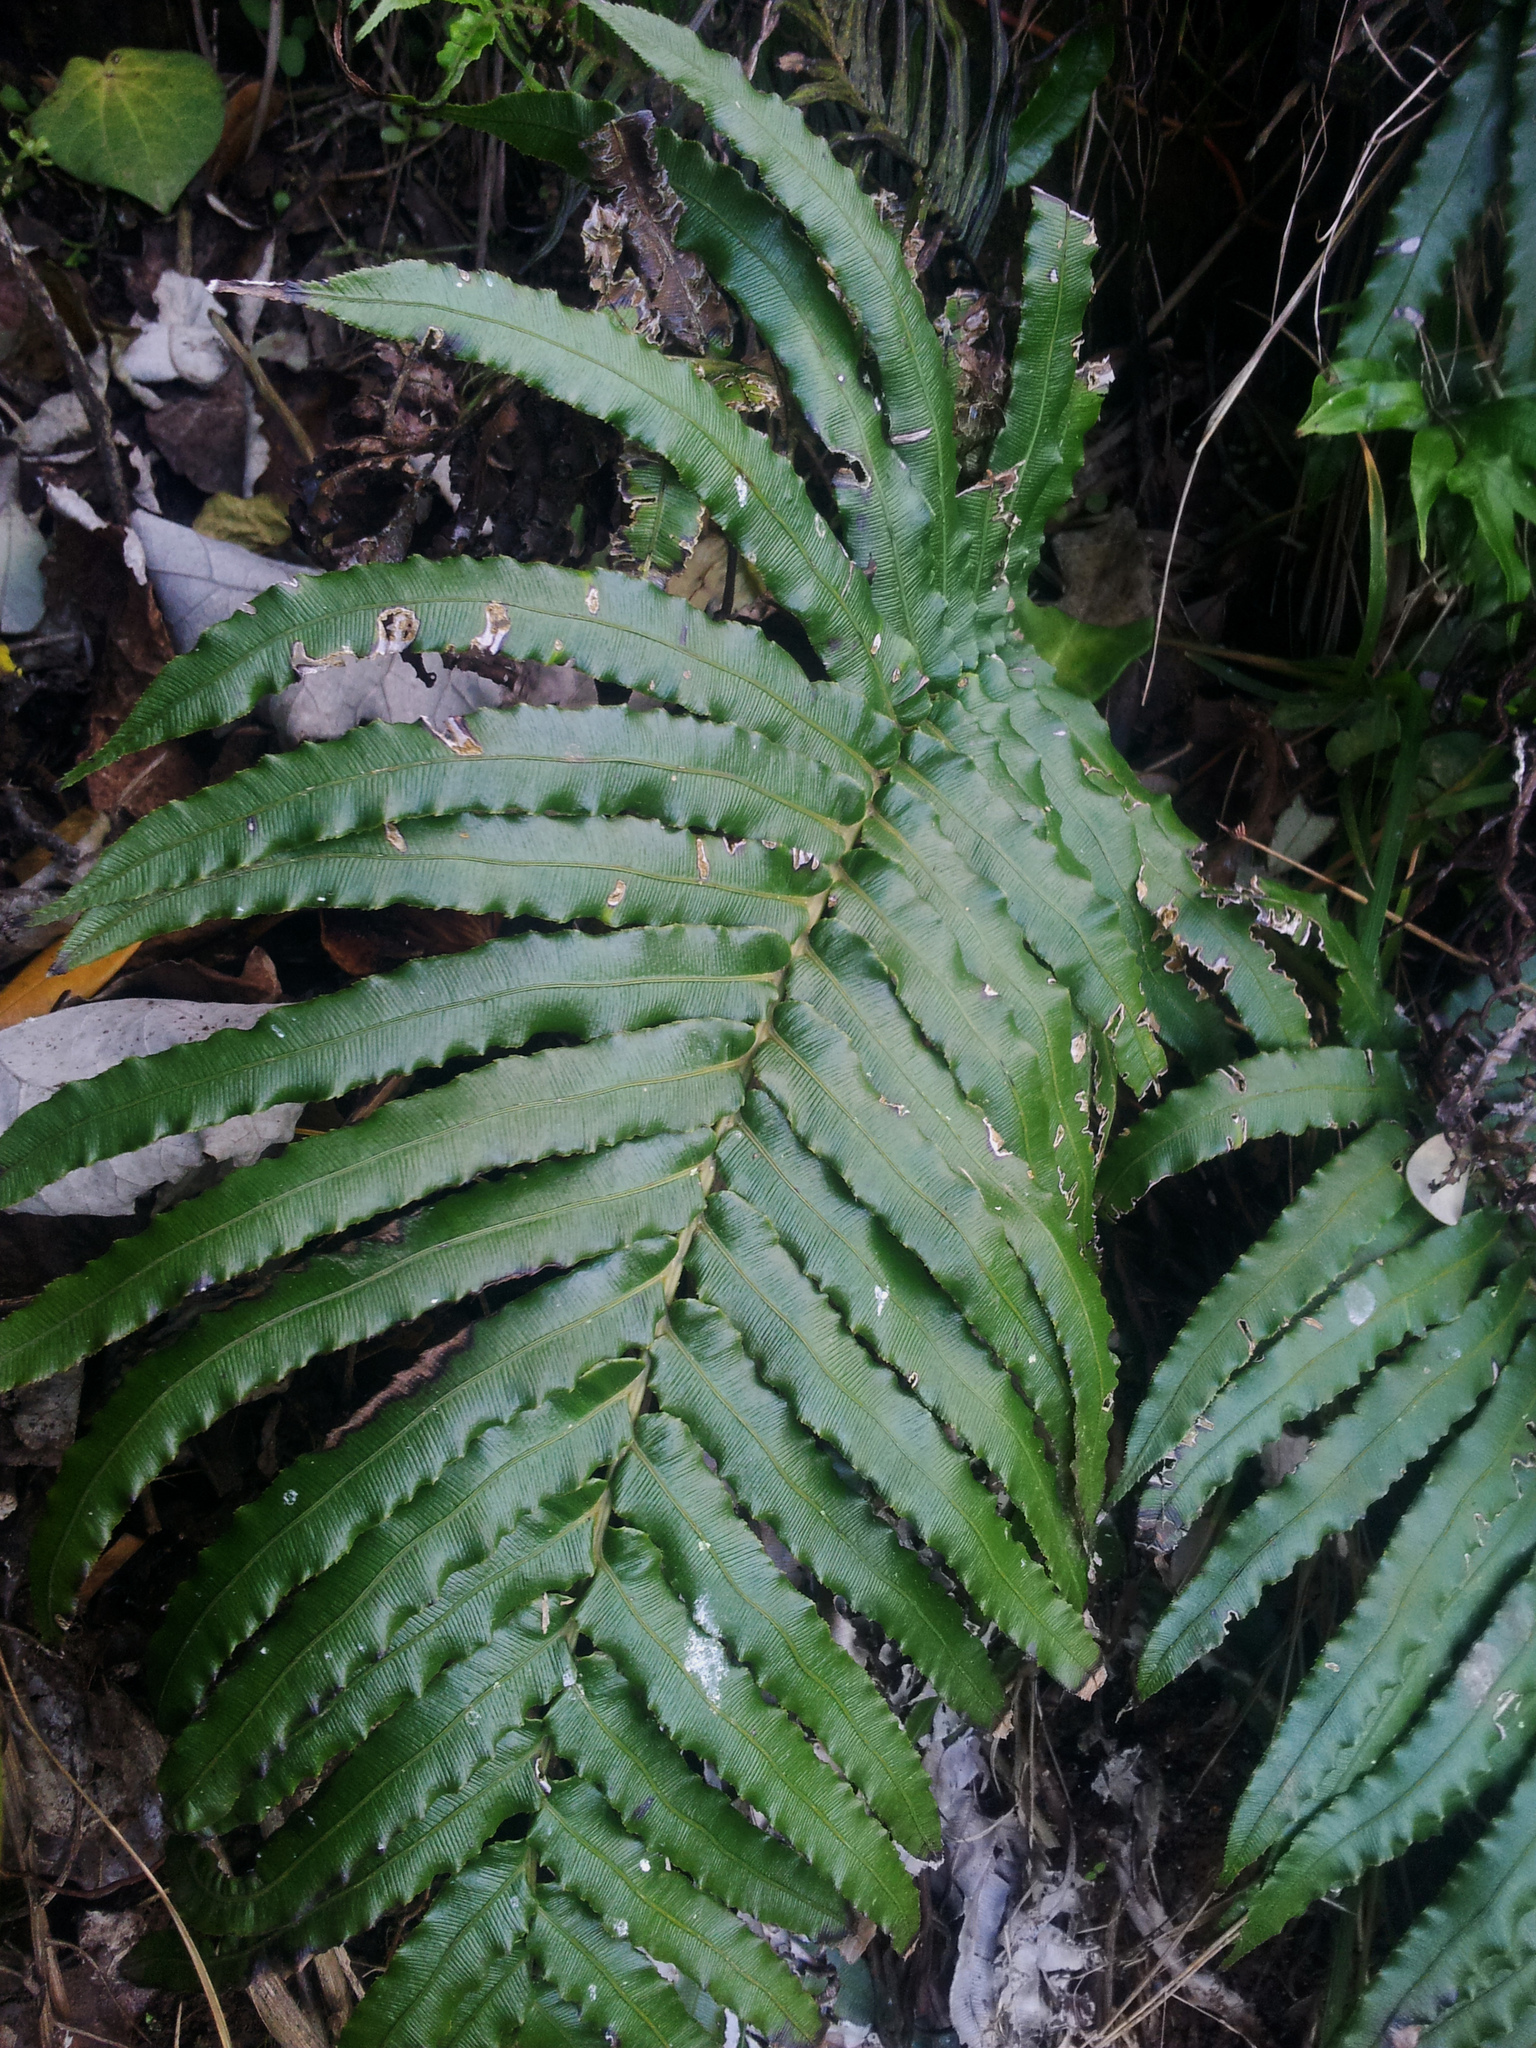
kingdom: Plantae
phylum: Tracheophyta
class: Polypodiopsida
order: Polypodiales
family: Blechnaceae
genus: Parablechnum
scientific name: Parablechnum triangularifolium
